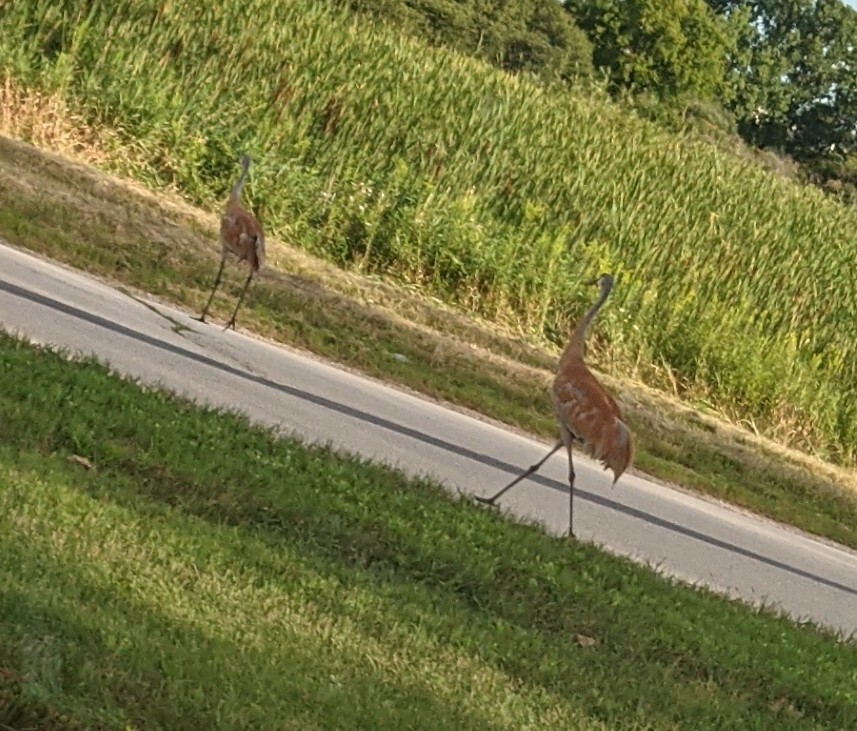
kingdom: Animalia
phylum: Chordata
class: Aves
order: Gruiformes
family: Gruidae
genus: Grus
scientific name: Grus canadensis
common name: Sandhill crane
